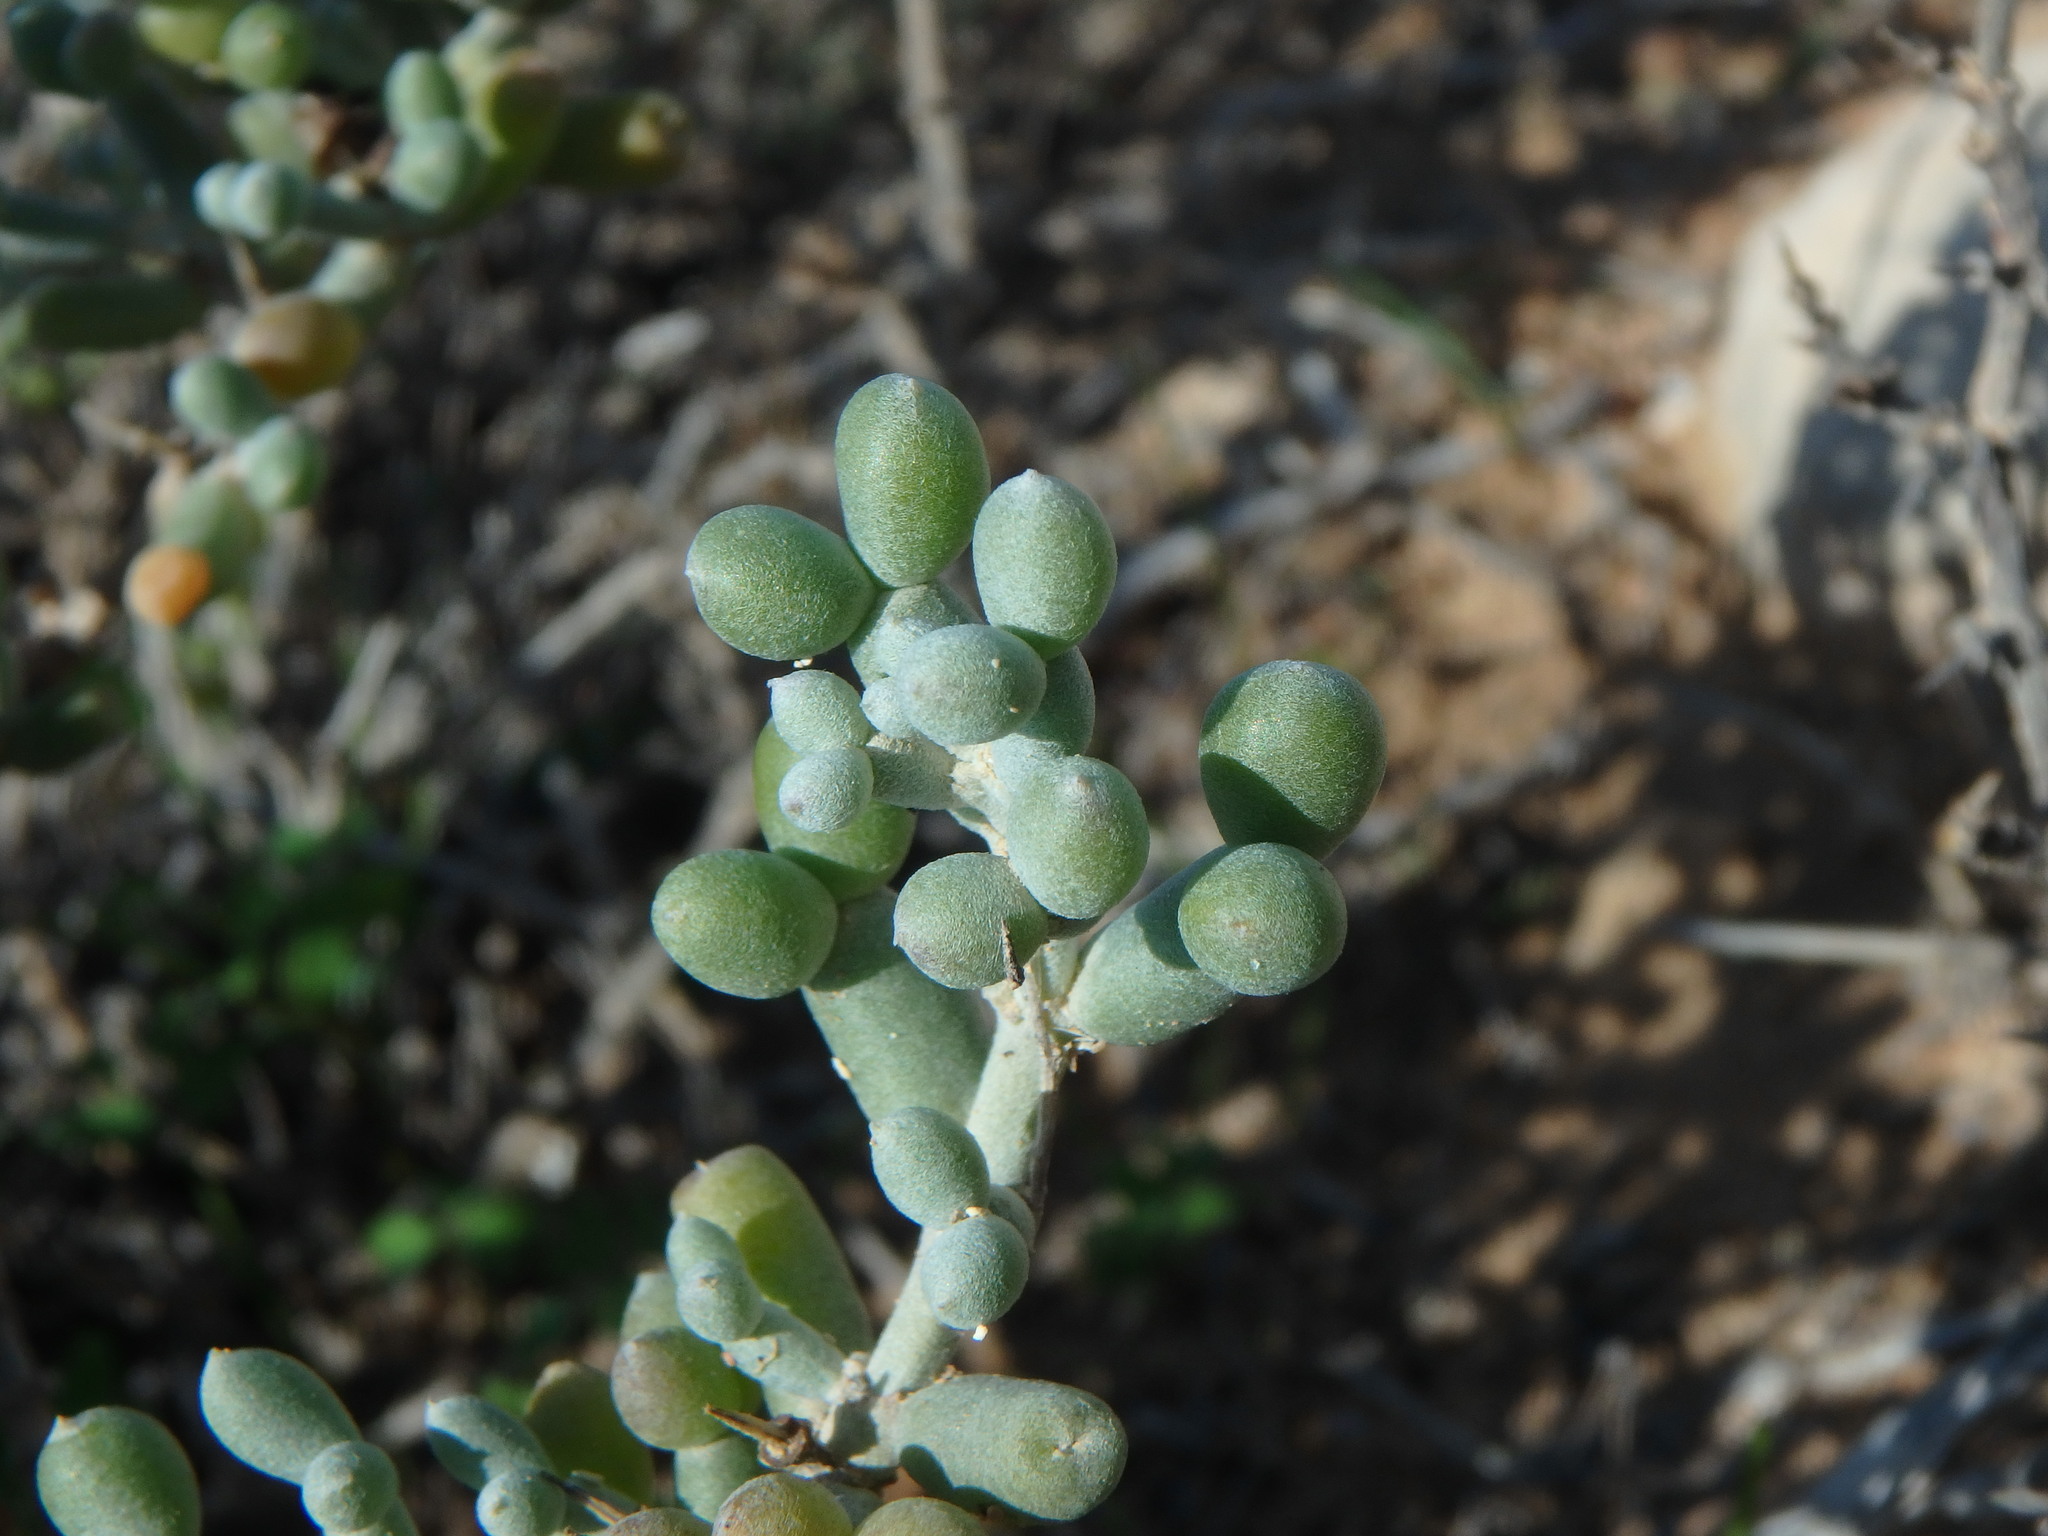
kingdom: Plantae
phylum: Tracheophyta
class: Magnoliopsida
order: Zygophyllales
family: Zygophyllaceae
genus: Tetraena
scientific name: Tetraena alba
